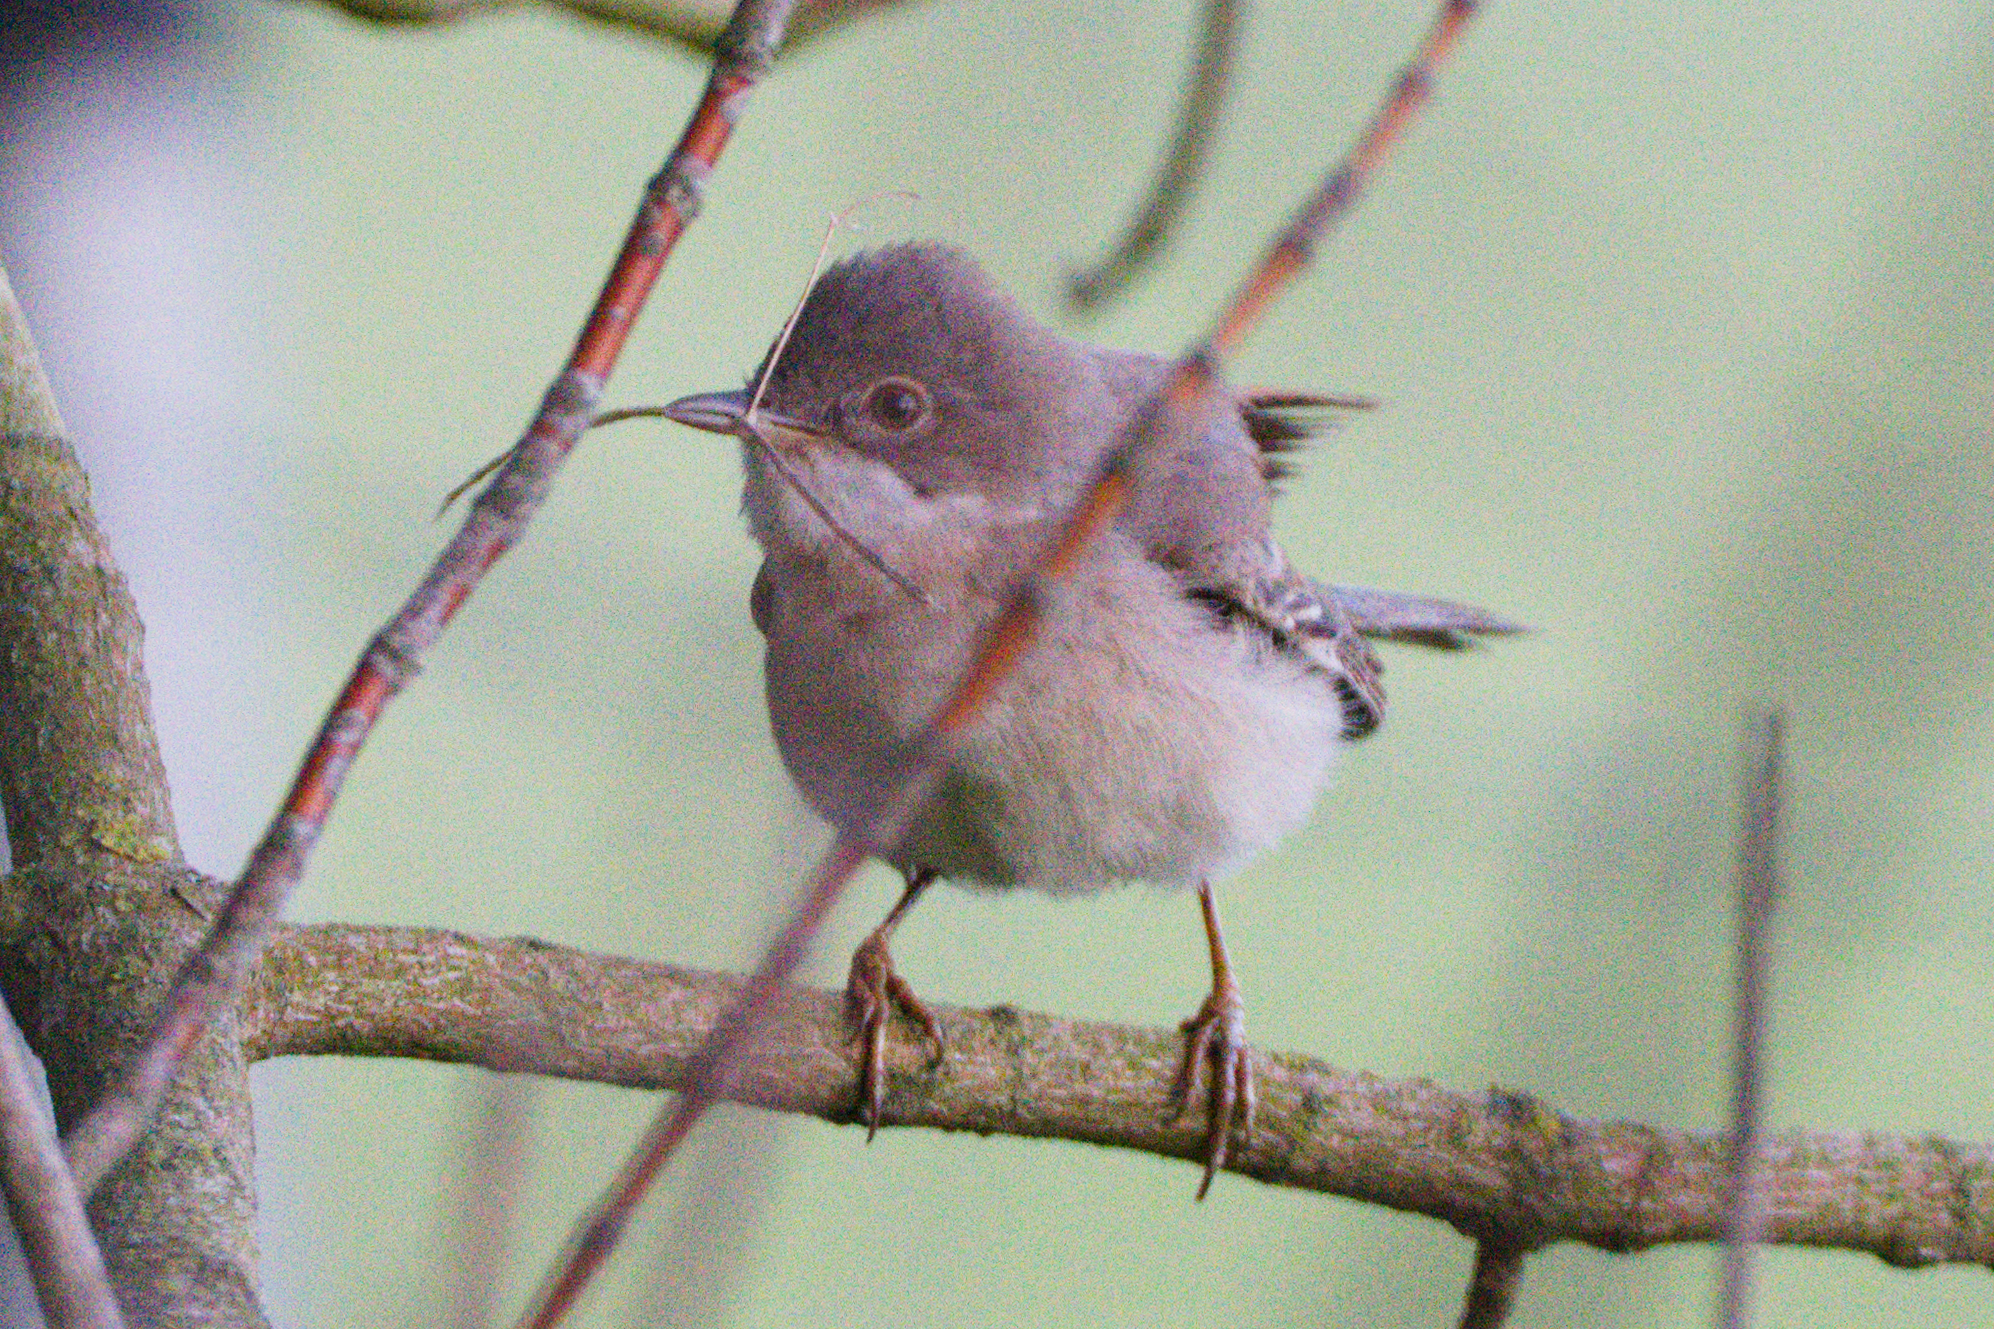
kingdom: Animalia
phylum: Chordata
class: Aves
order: Passeriformes
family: Sylviidae
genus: Sylvia
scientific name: Sylvia communis
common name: Common whitethroat
